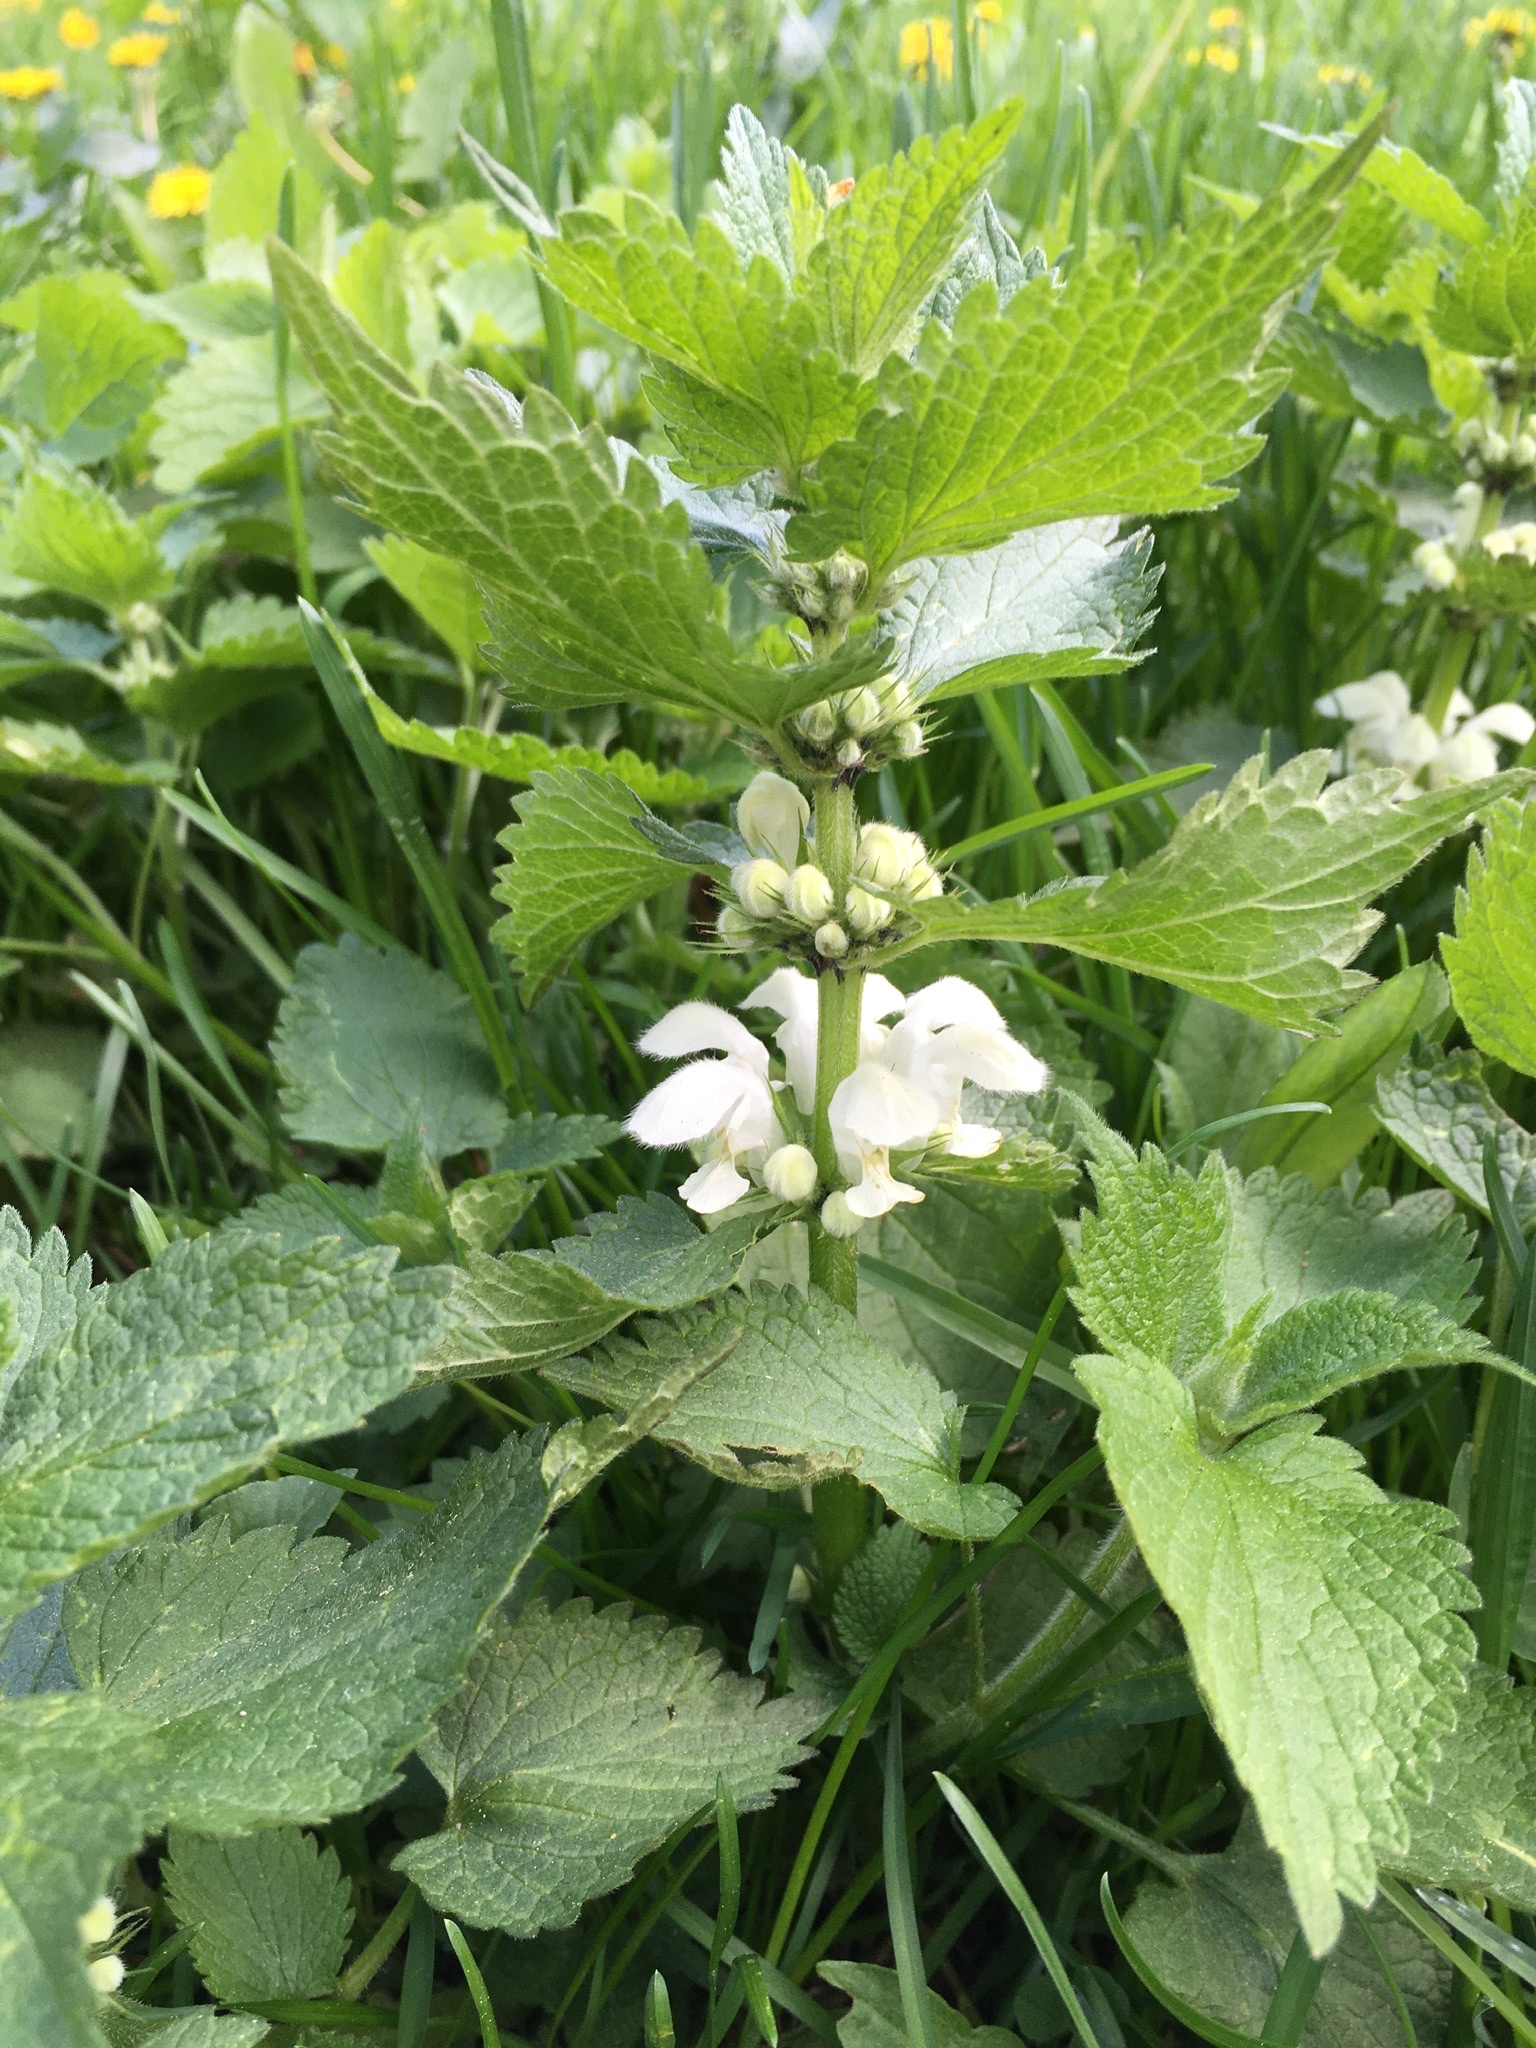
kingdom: Plantae
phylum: Tracheophyta
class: Magnoliopsida
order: Lamiales
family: Lamiaceae
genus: Lamium
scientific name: Lamium album
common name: White dead-nettle
